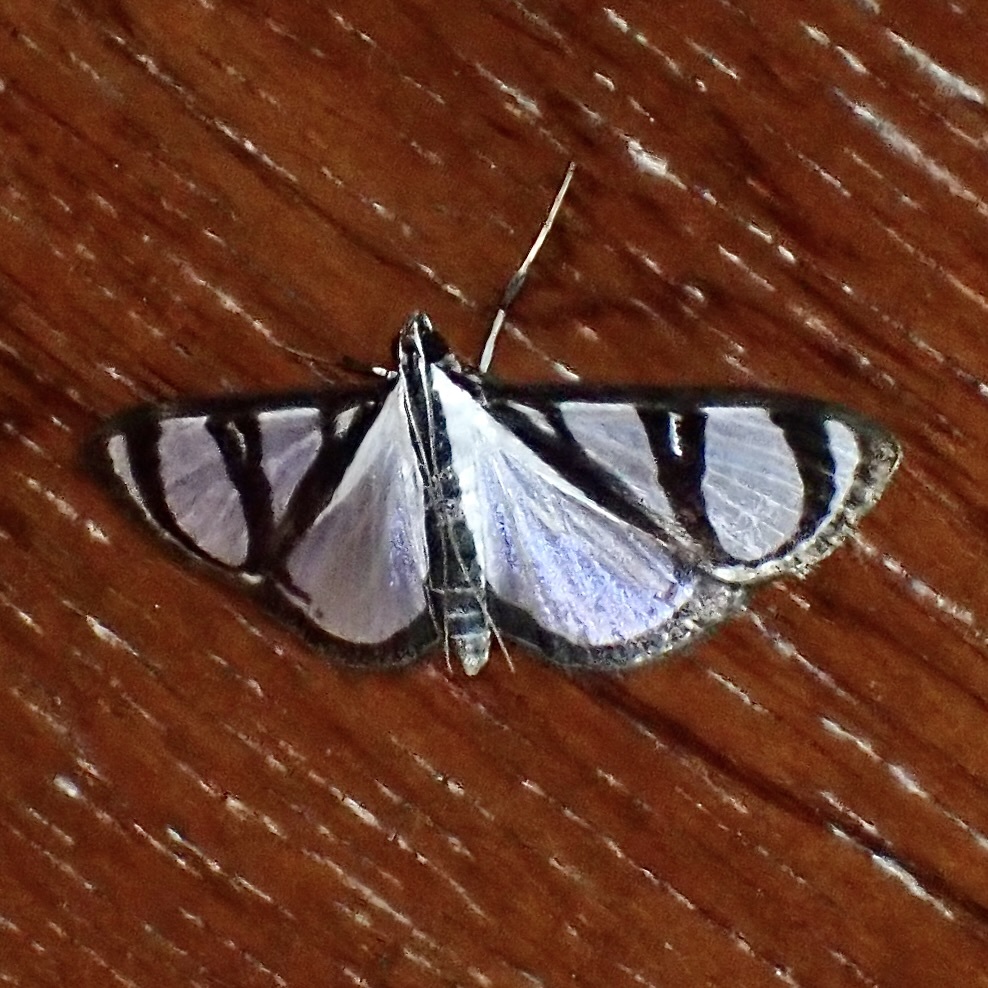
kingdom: Animalia
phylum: Arthropoda
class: Insecta
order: Lepidoptera
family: Crambidae
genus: Glyphodes
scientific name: Glyphodes confinis
